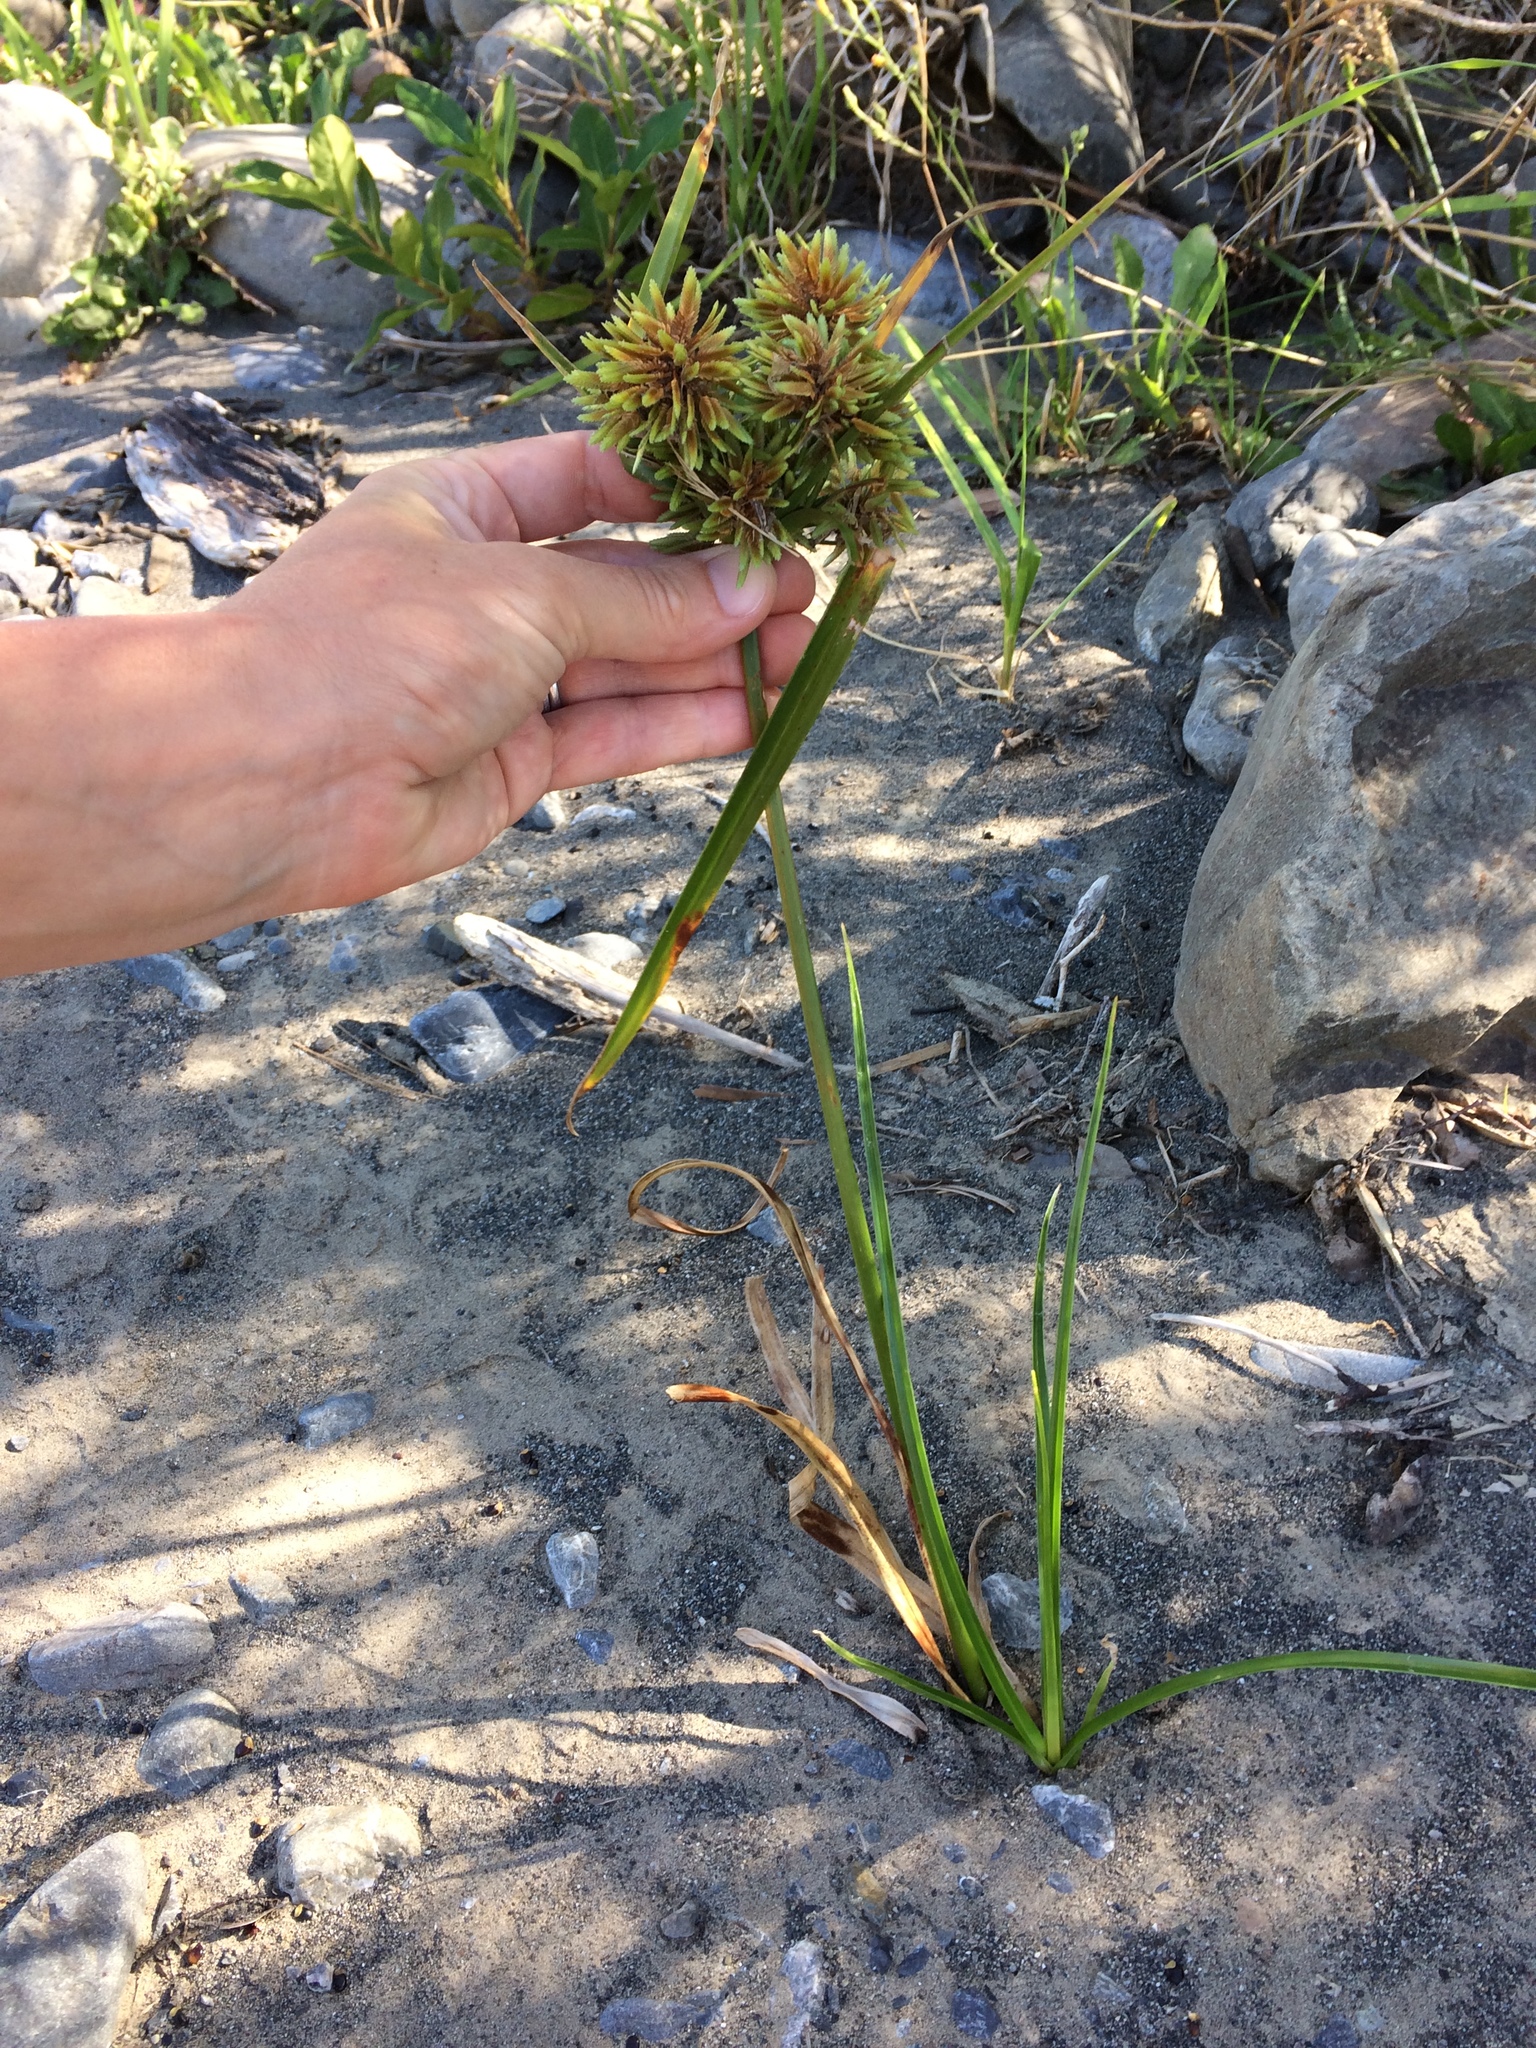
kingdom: Plantae
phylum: Tracheophyta
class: Liliopsida
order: Poales
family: Cyperaceae
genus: Cyperus
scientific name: Cyperus eragrostis
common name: Tall flatsedge
